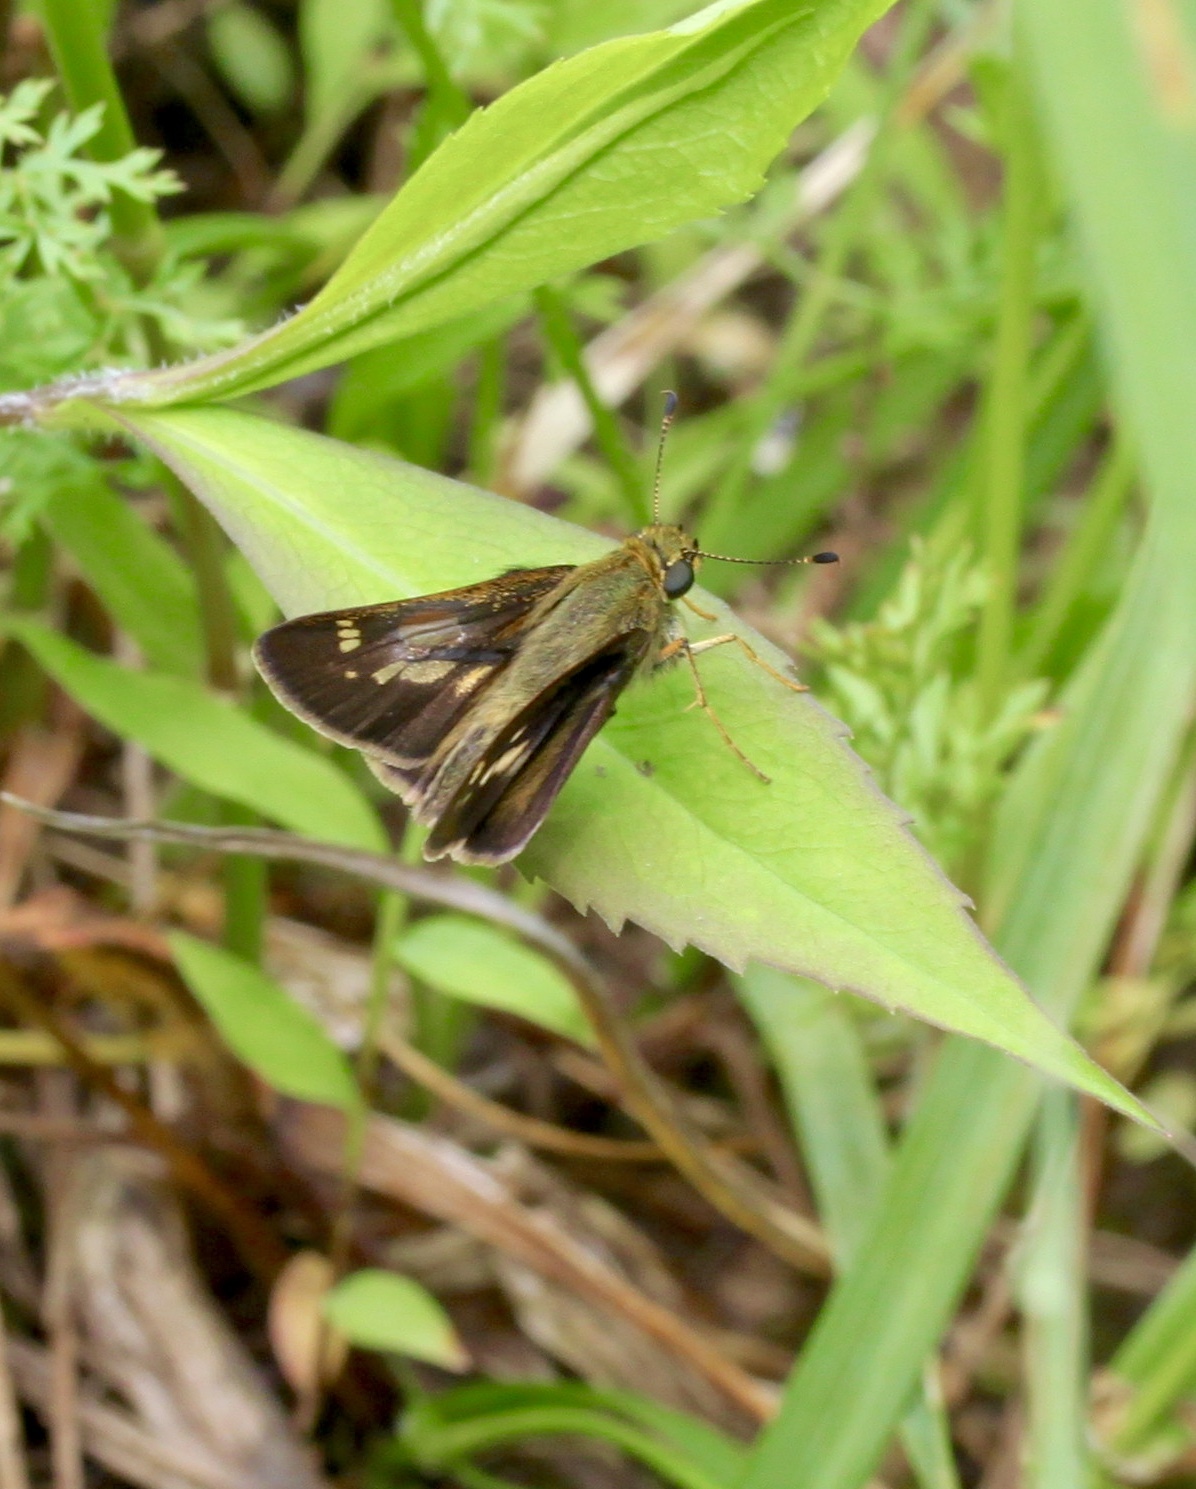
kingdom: Animalia
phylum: Arthropoda
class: Insecta
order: Lepidoptera
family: Hesperiidae
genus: Vernia
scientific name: Vernia verna
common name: Little glassywing
